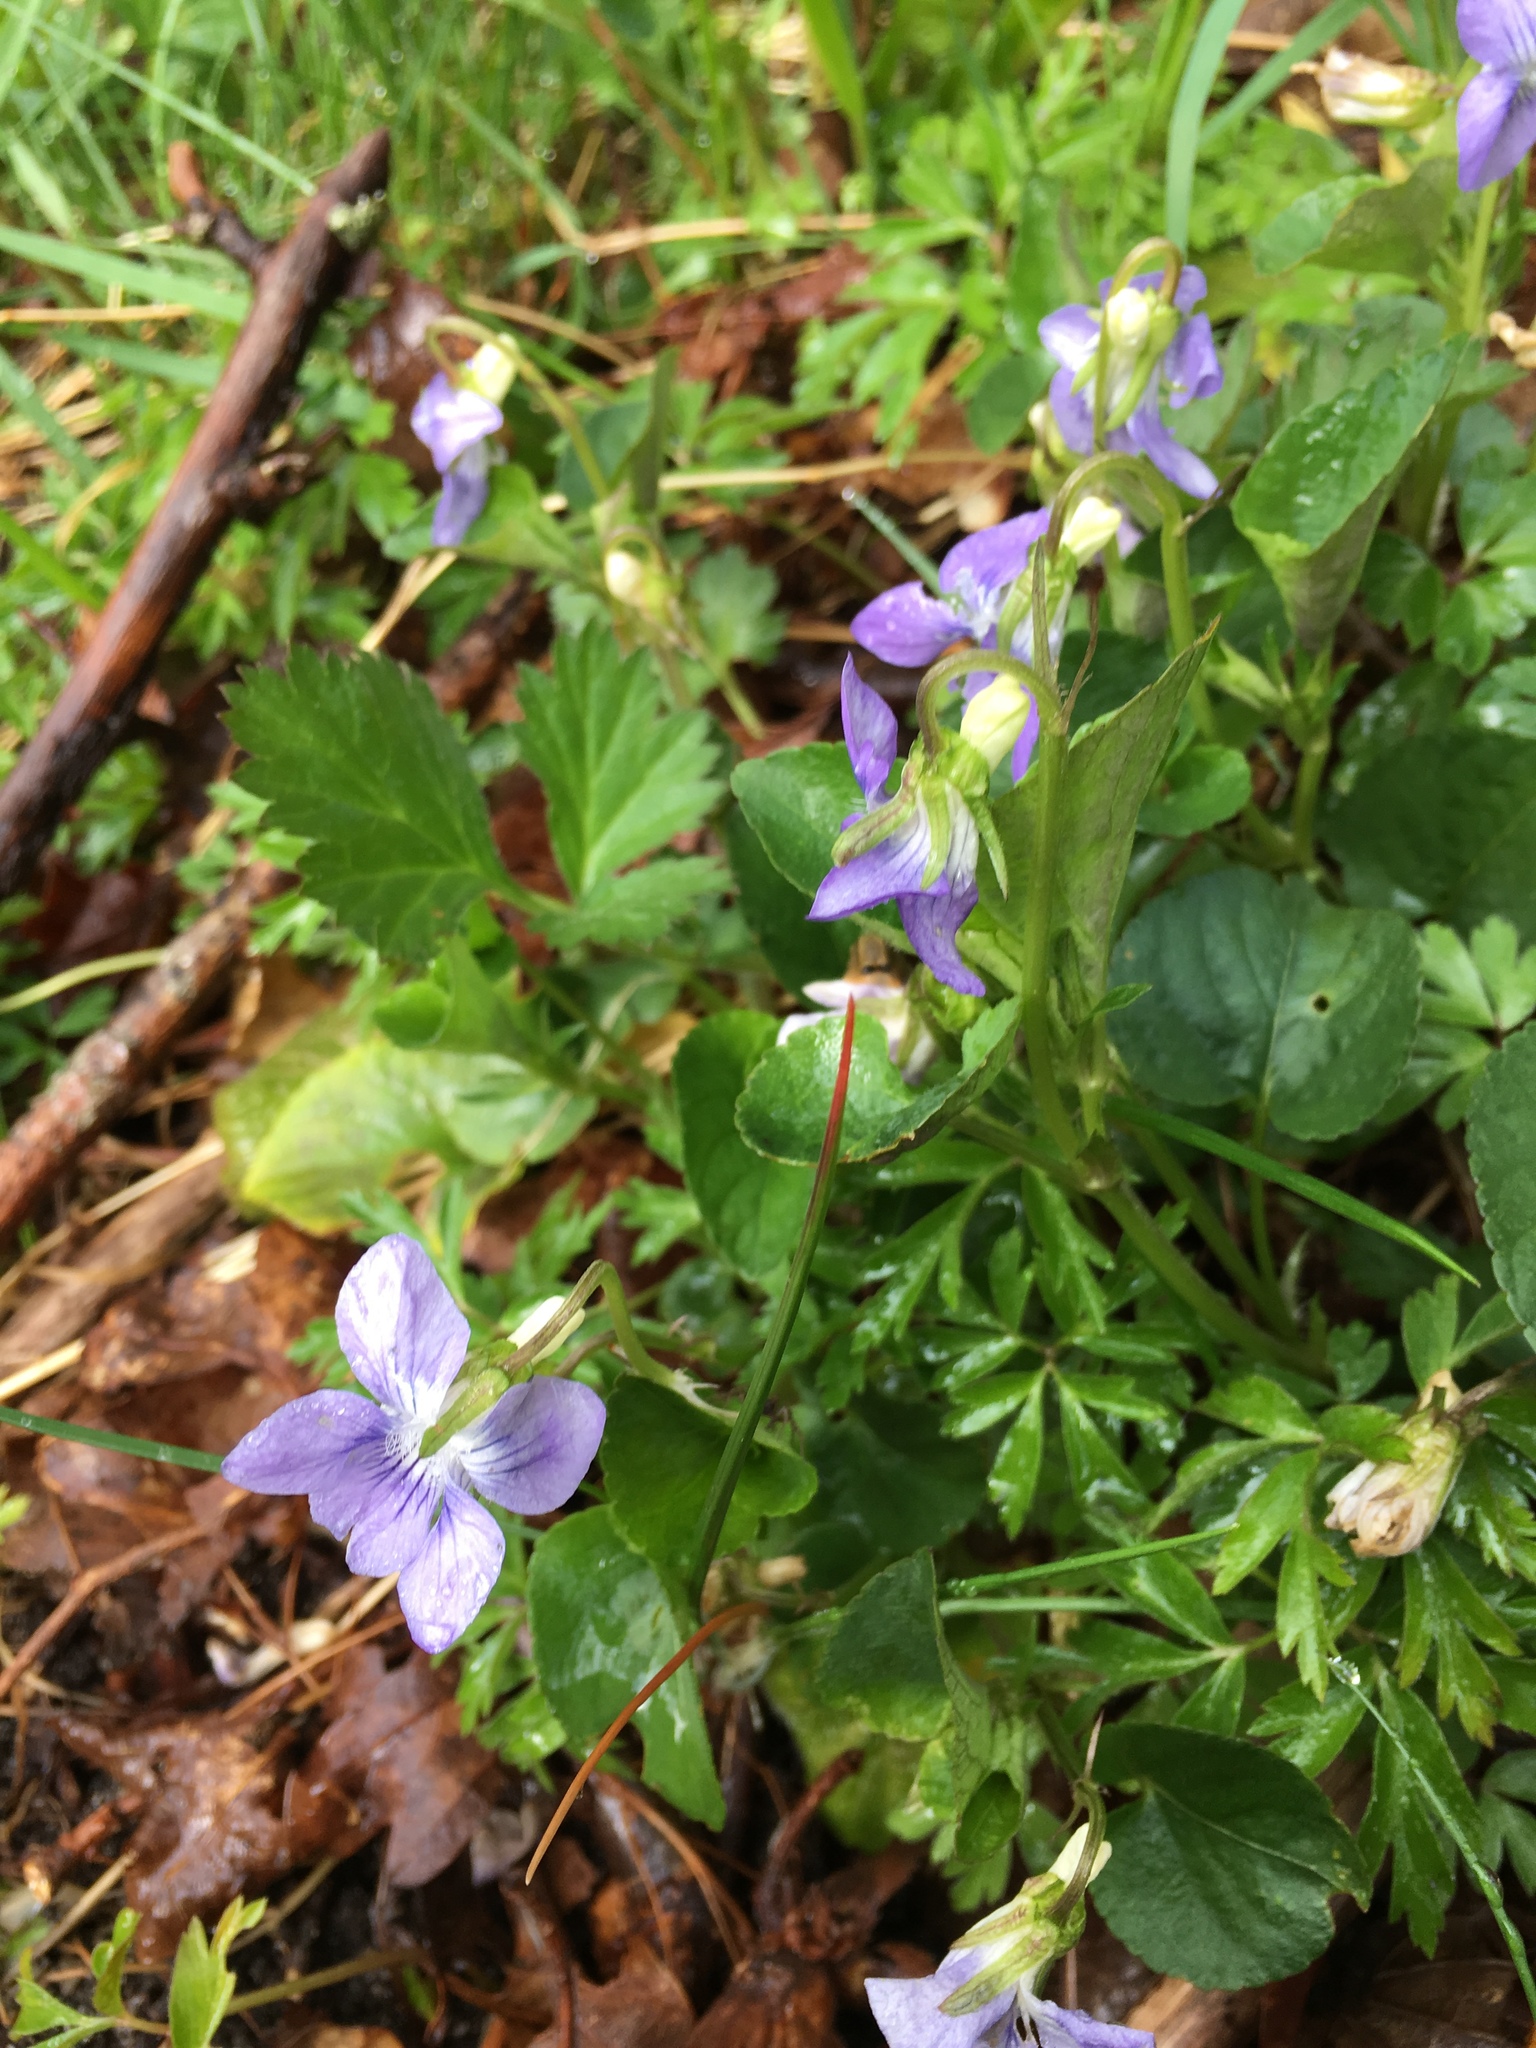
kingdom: Plantae
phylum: Tracheophyta
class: Magnoliopsida
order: Malpighiales
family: Violaceae
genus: Viola
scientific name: Viola riviniana
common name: Common dog-violet
